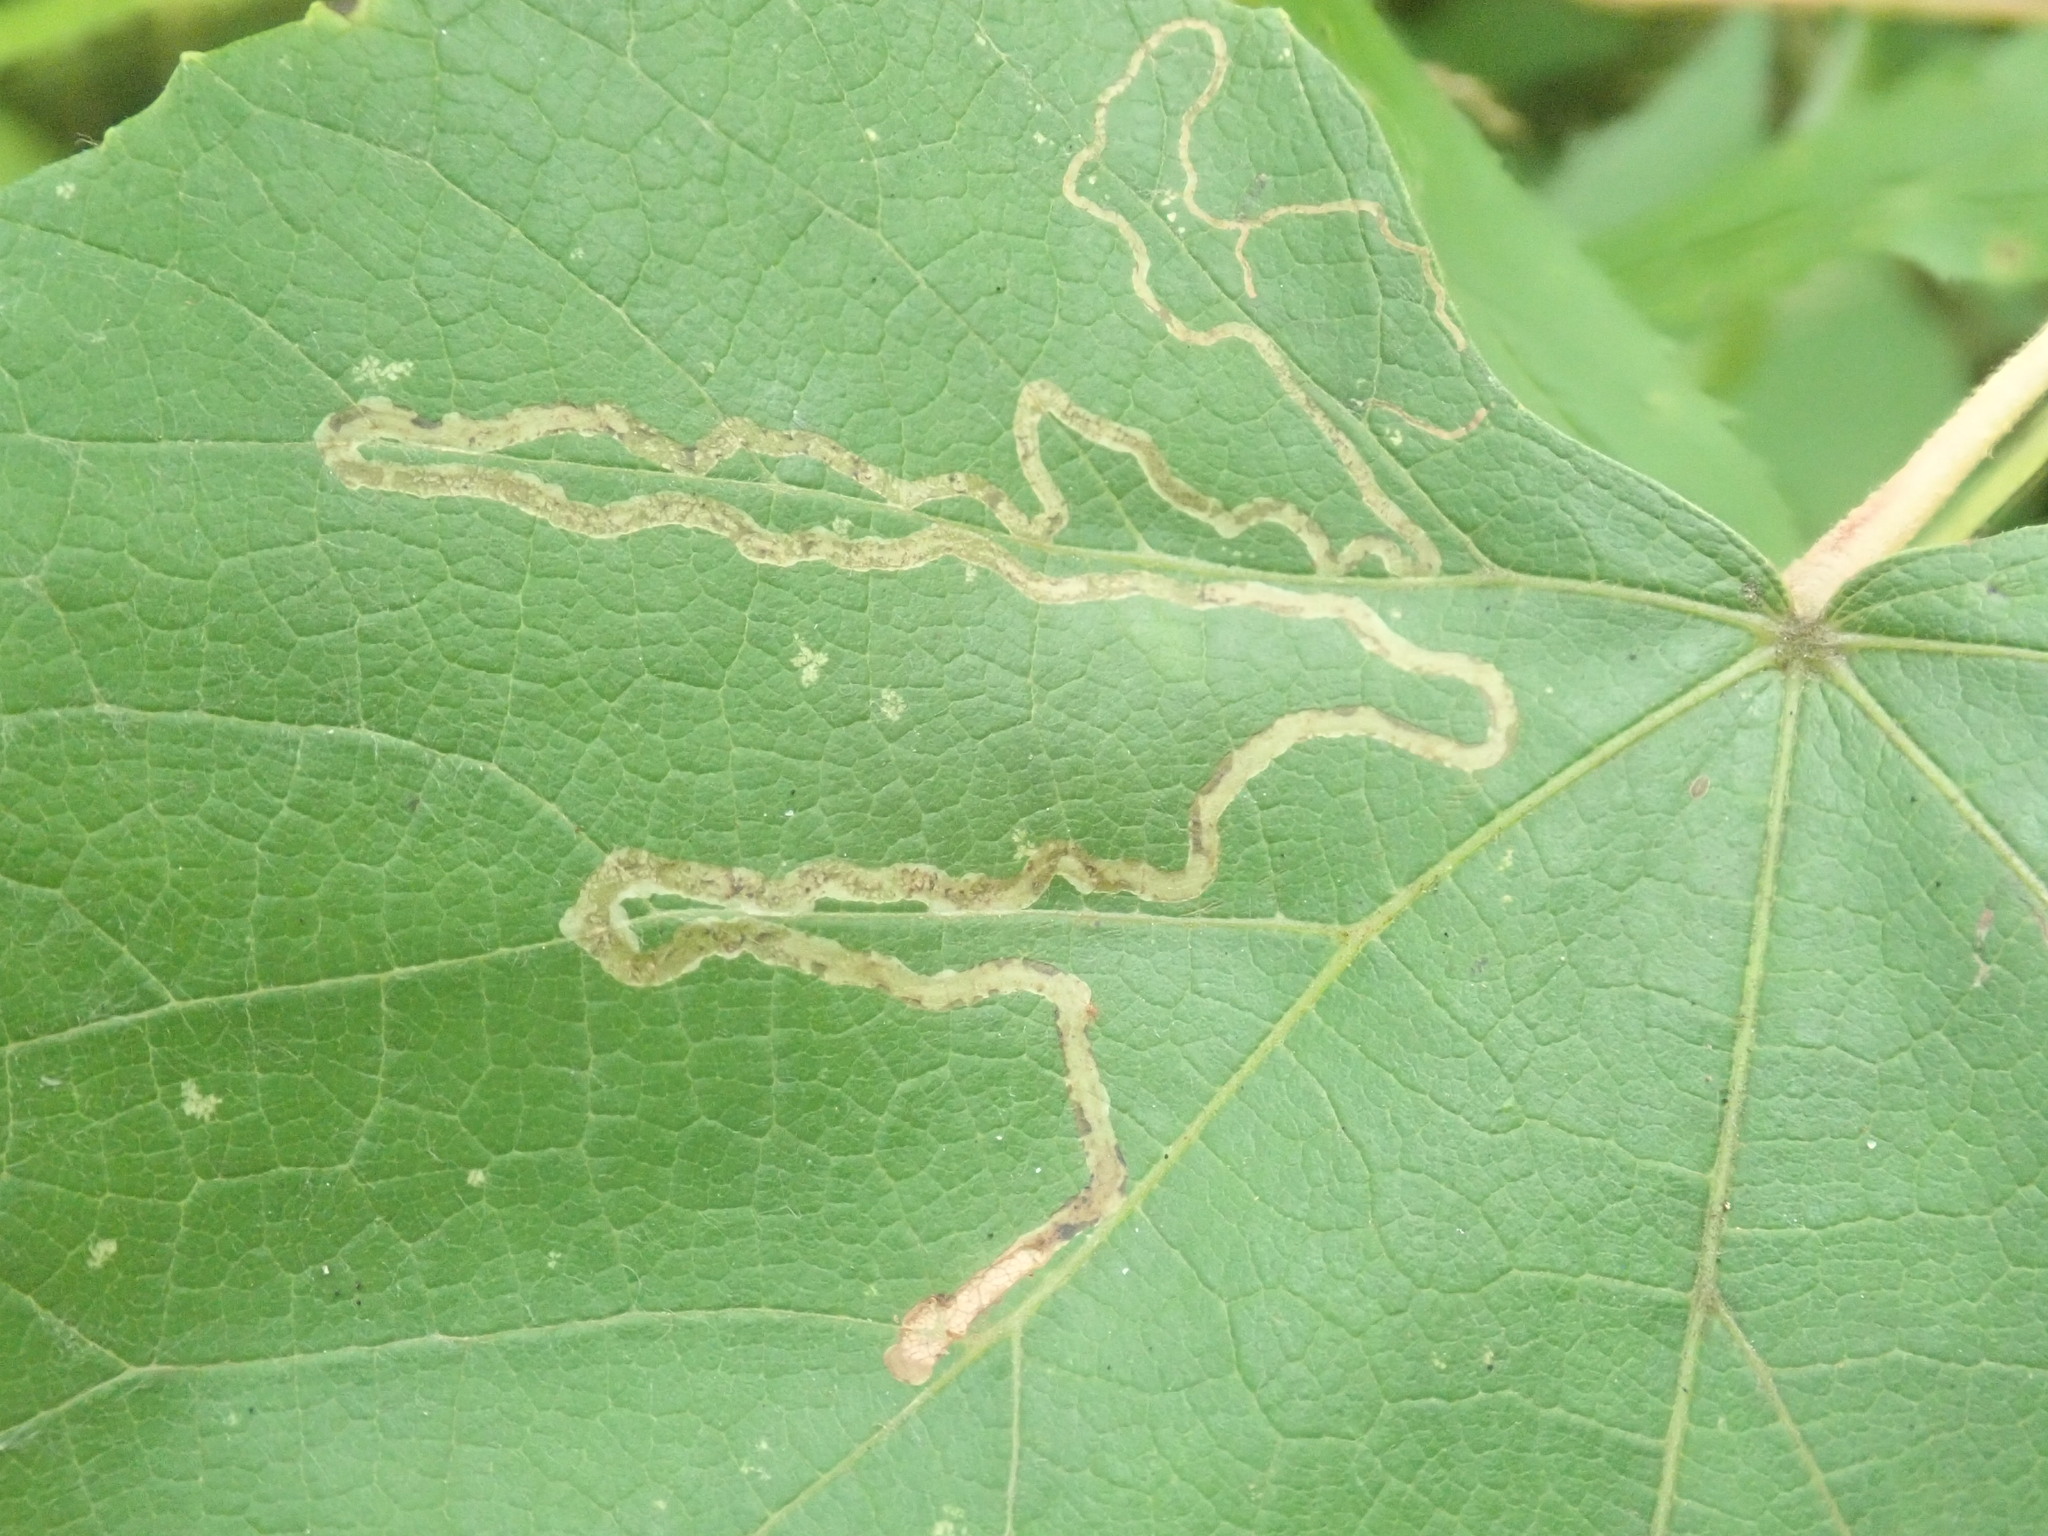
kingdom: Animalia
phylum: Arthropoda
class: Insecta
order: Lepidoptera
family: Gracillariidae
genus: Phyllocnistis
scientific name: Phyllocnistis vitifoliella
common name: Grape leaf-miner moth
